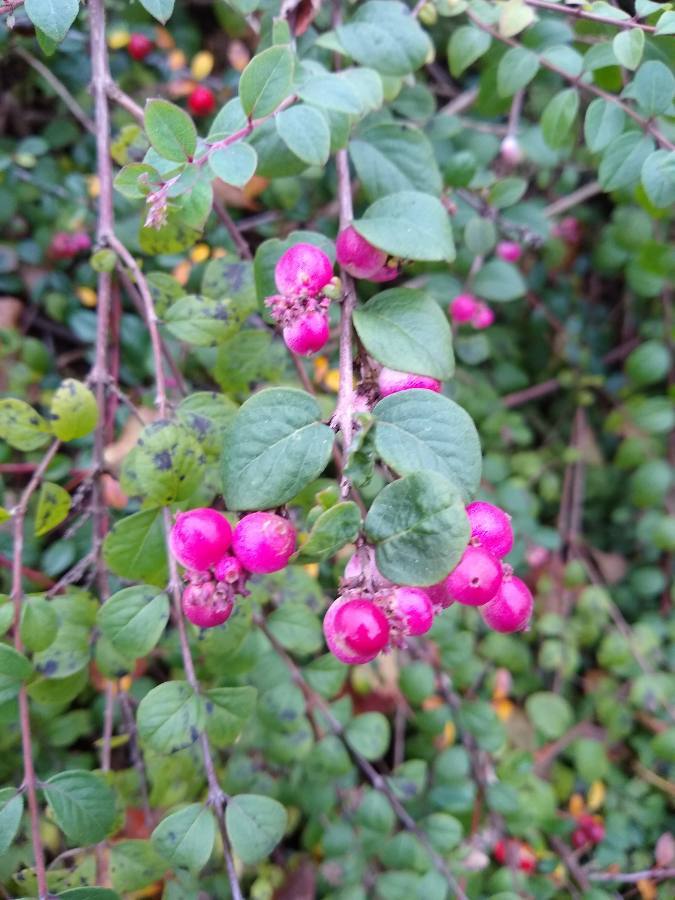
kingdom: Plantae
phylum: Tracheophyta
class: Magnoliopsida
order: Dipsacales
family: Caprifoliaceae
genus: Symphoricarpos
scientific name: Symphoricarpos chenaultii
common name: Hybrid coralberry
